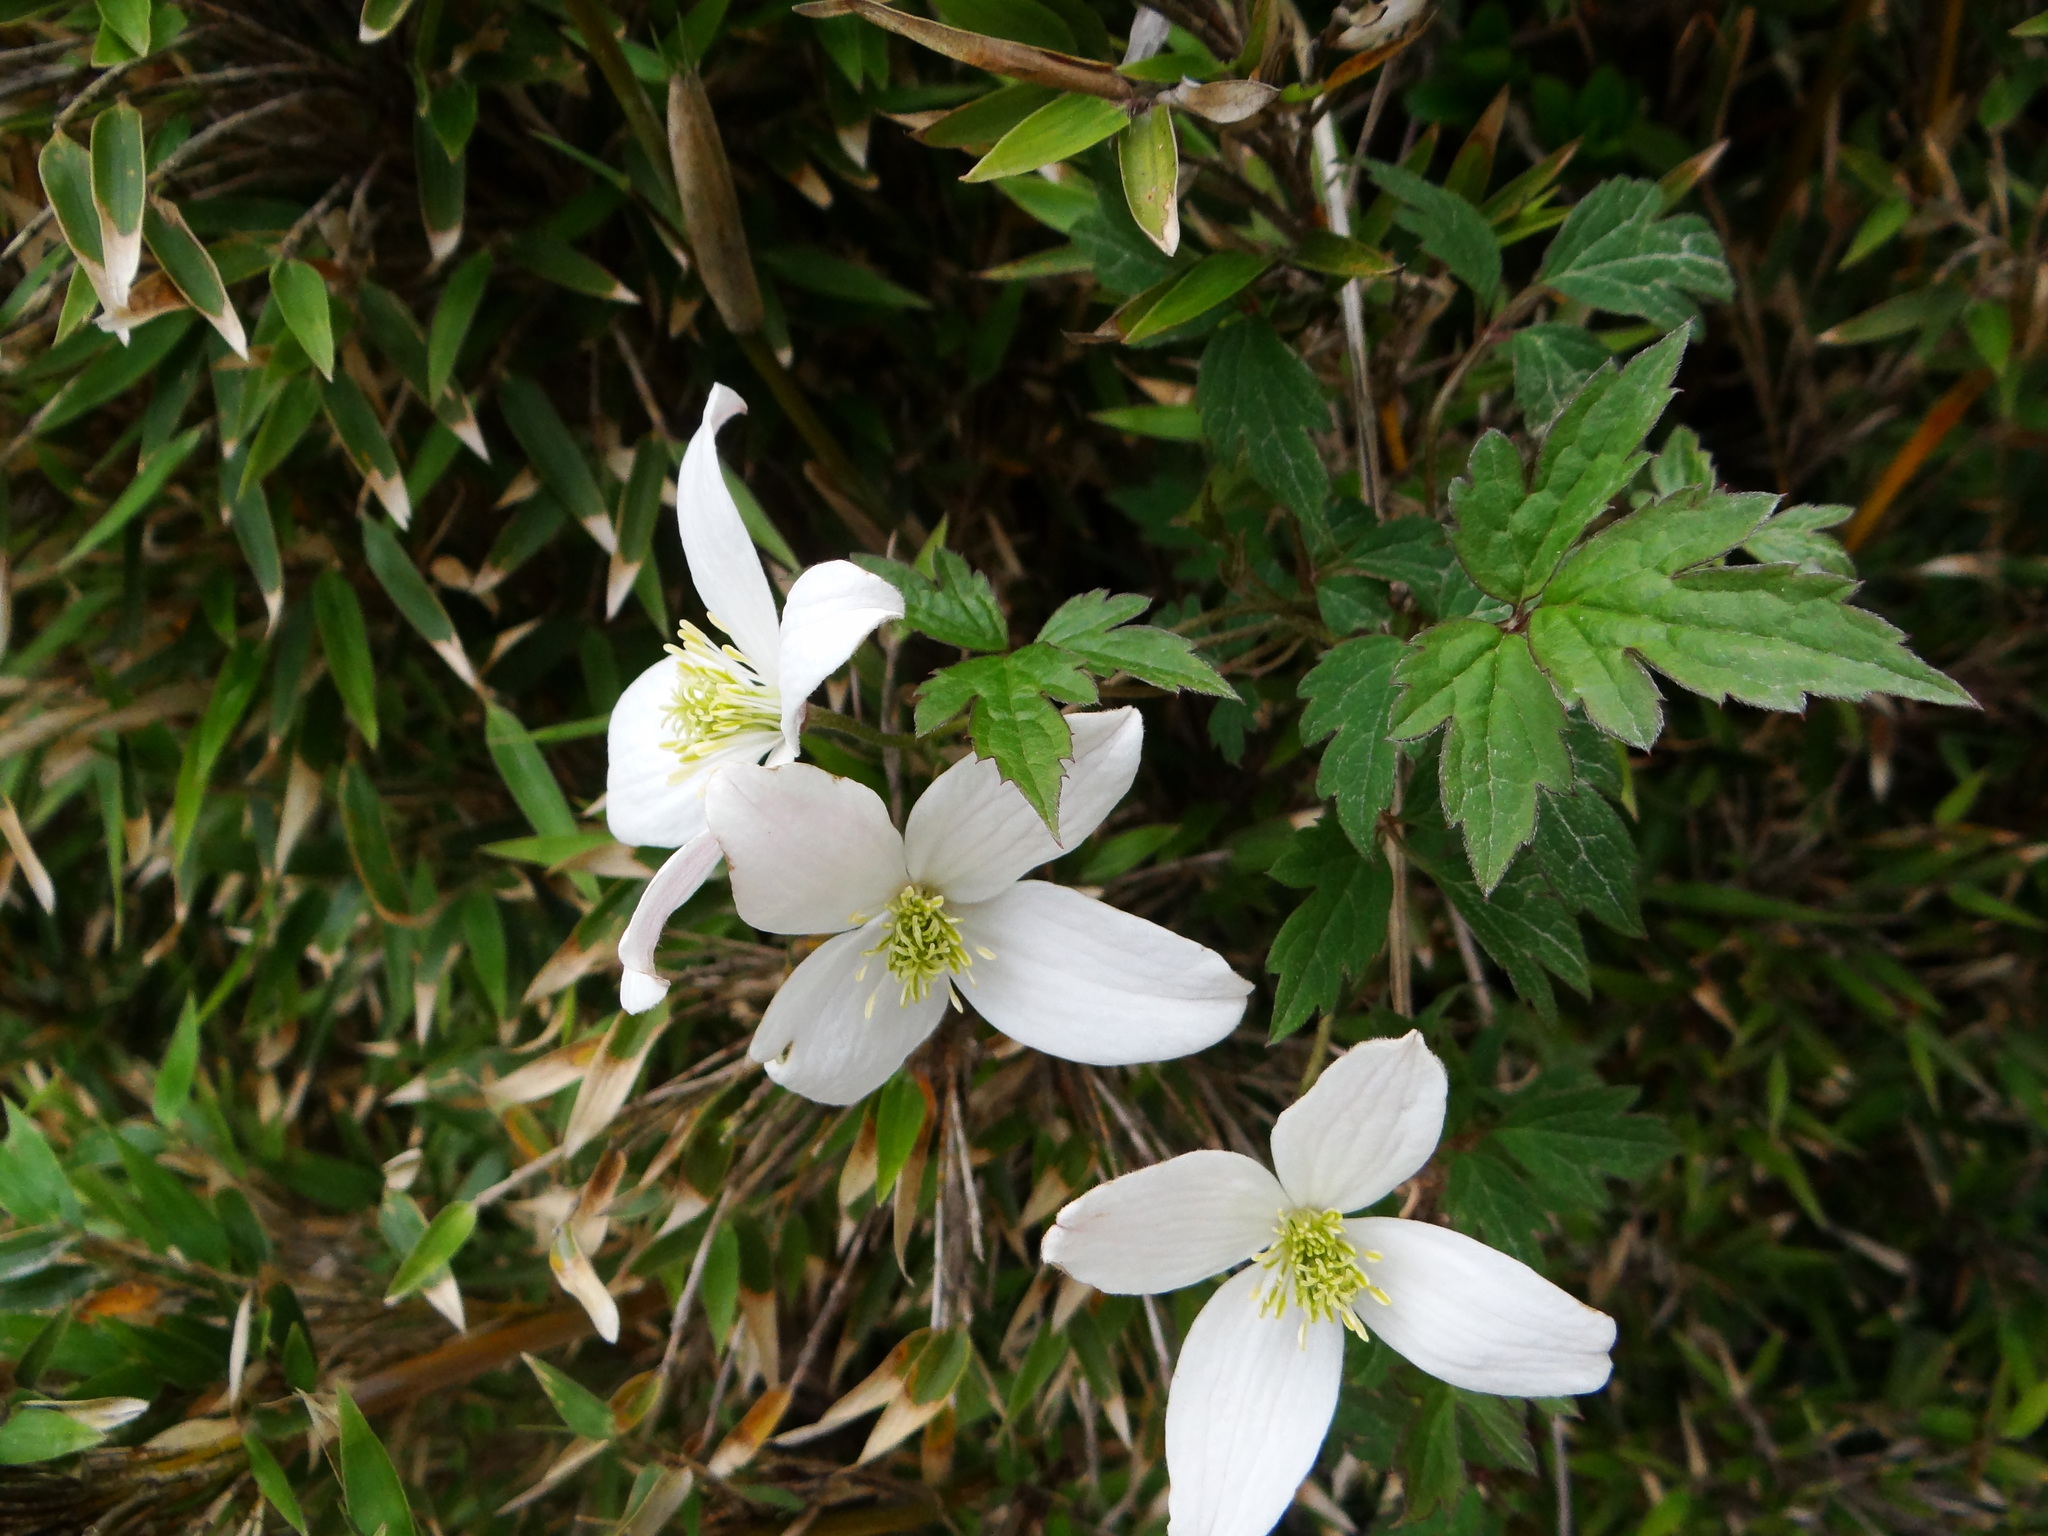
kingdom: Plantae
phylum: Tracheophyta
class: Magnoliopsida
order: Ranunculales
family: Ranunculaceae
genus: Clematis
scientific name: Clematis montana
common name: Himalayan clematis
